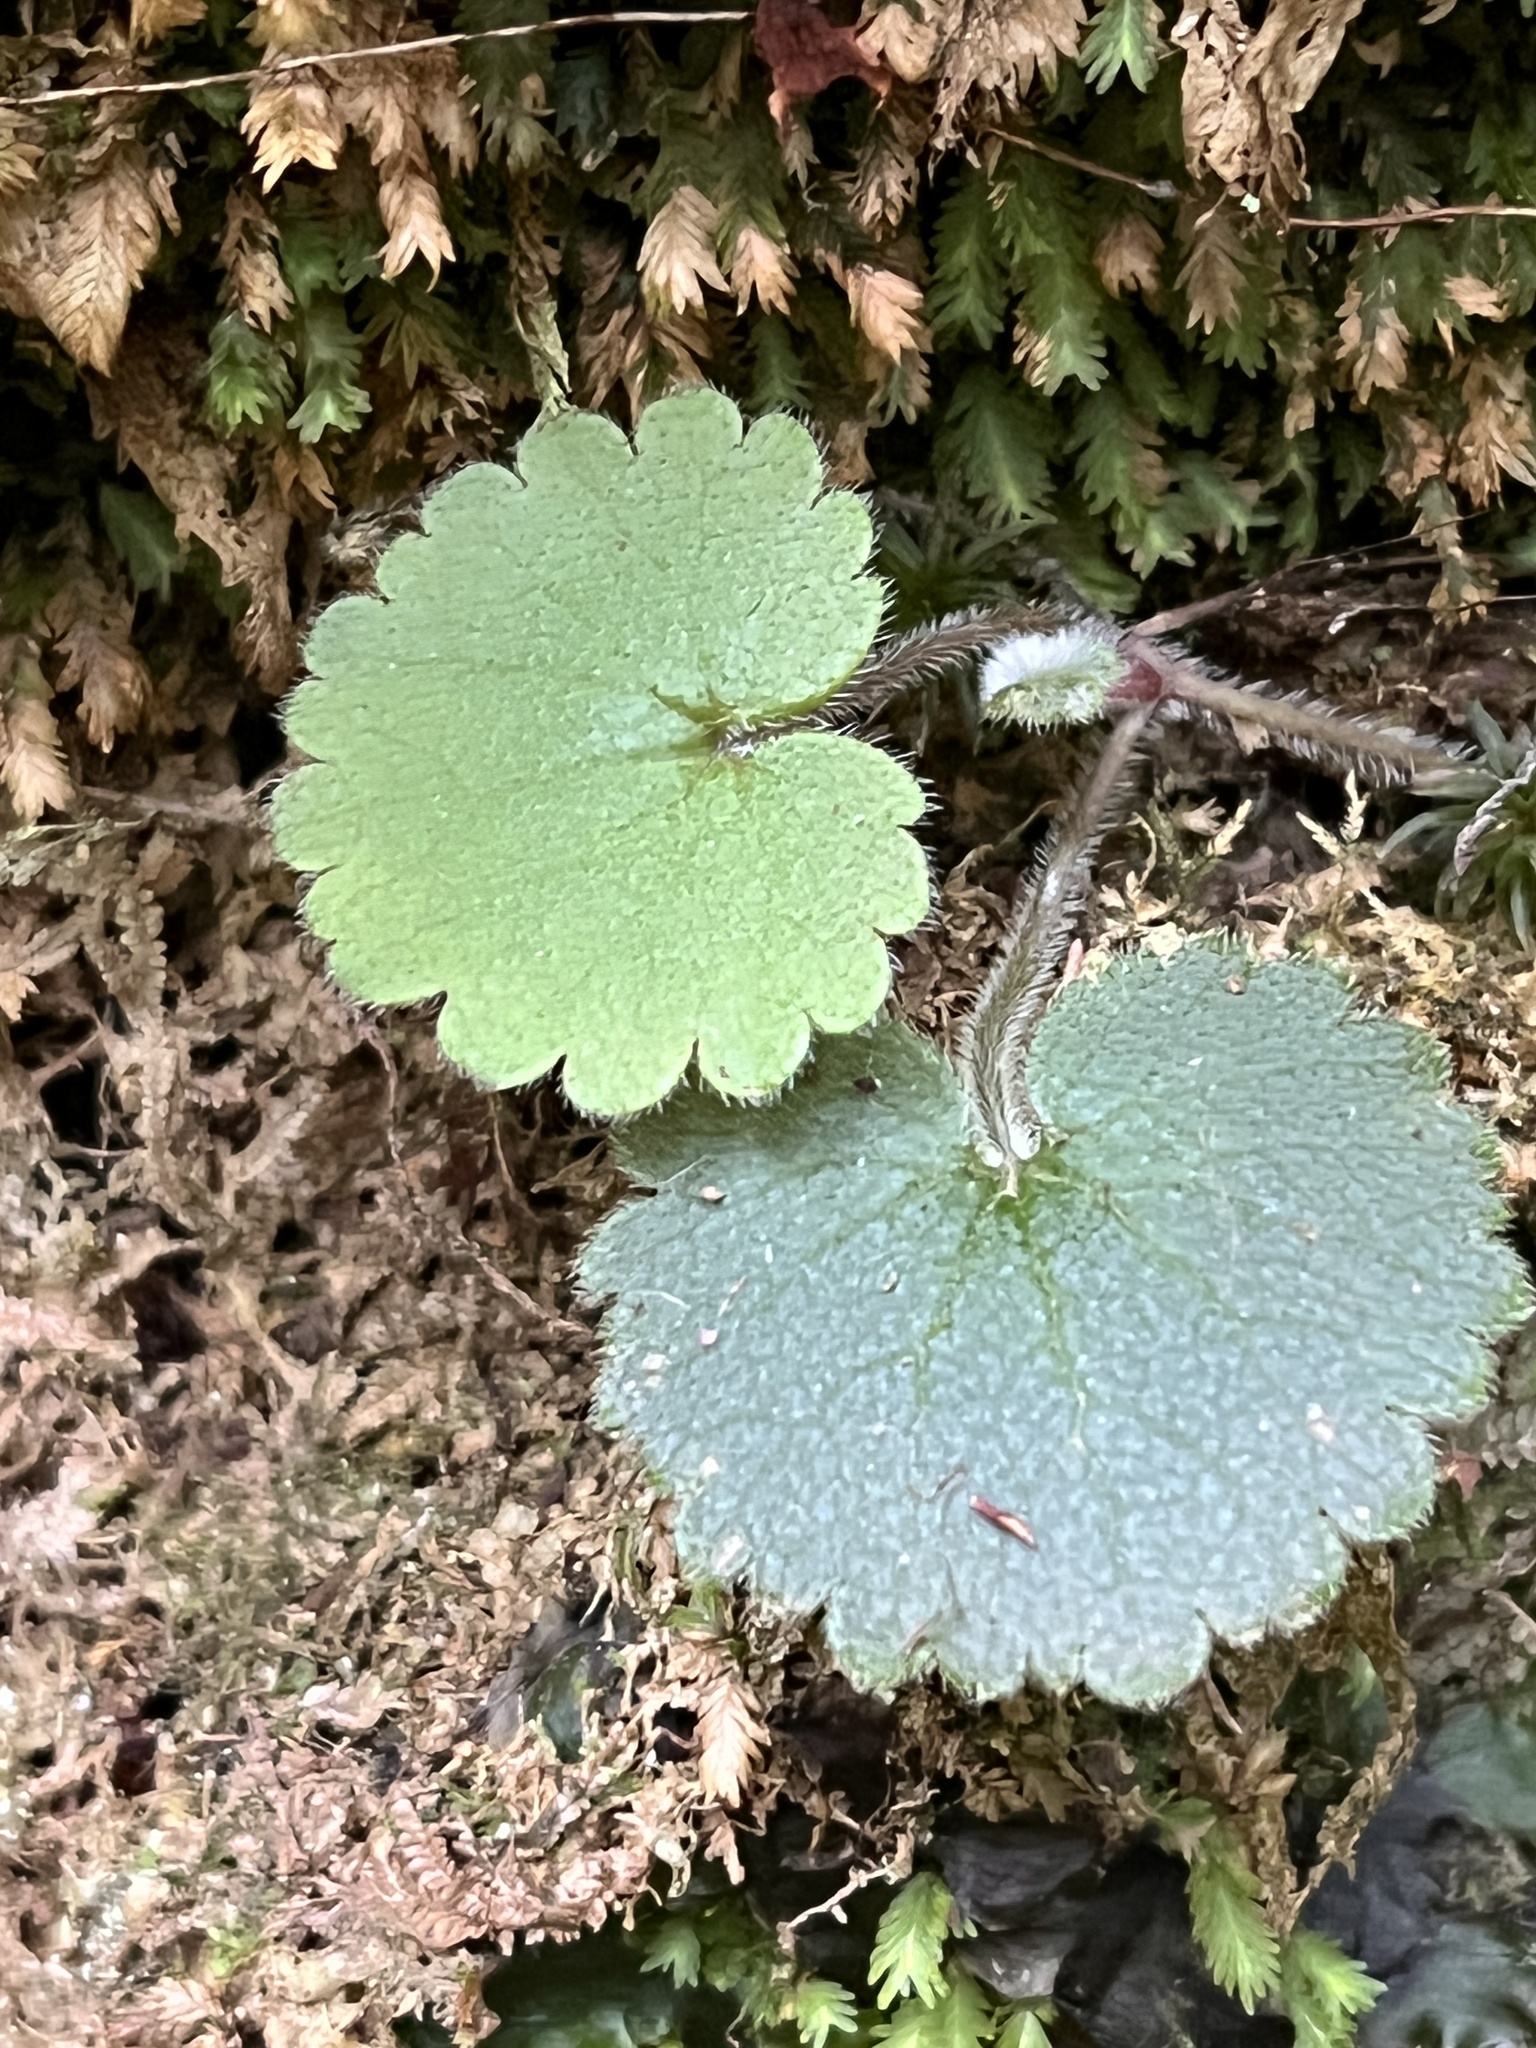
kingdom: Plantae
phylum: Tracheophyta
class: Magnoliopsida
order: Lamiales
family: Plantaginaceae
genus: Sibthorpia
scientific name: Sibthorpia peregrina
